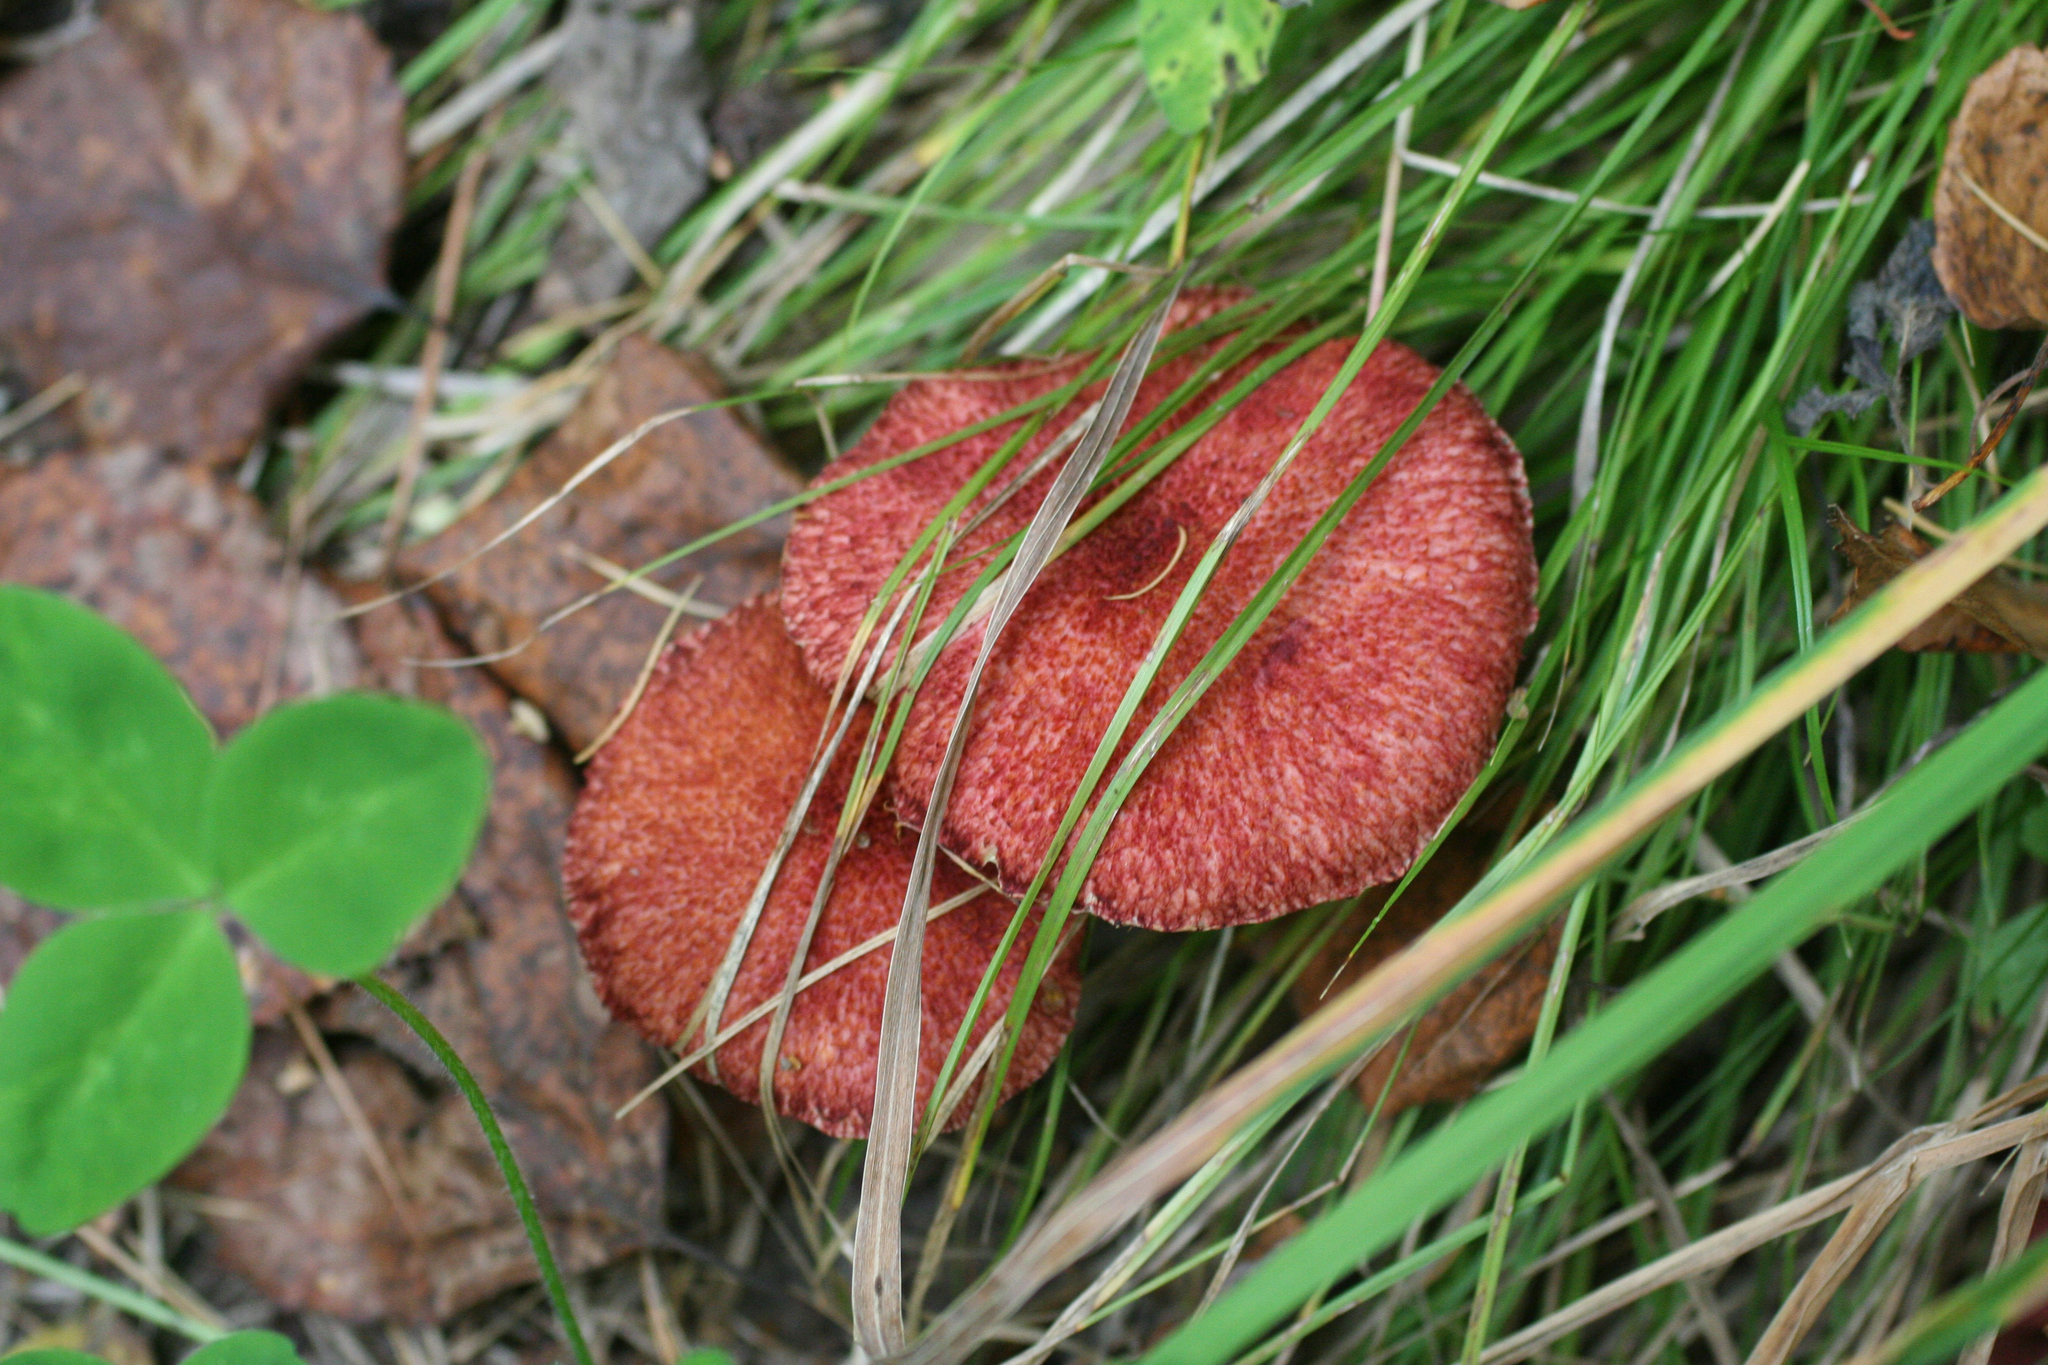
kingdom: Fungi
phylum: Basidiomycota
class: Agaricomycetes
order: Boletales
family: Suillaceae
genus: Boletinus
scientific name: Boletinus asiaticus
